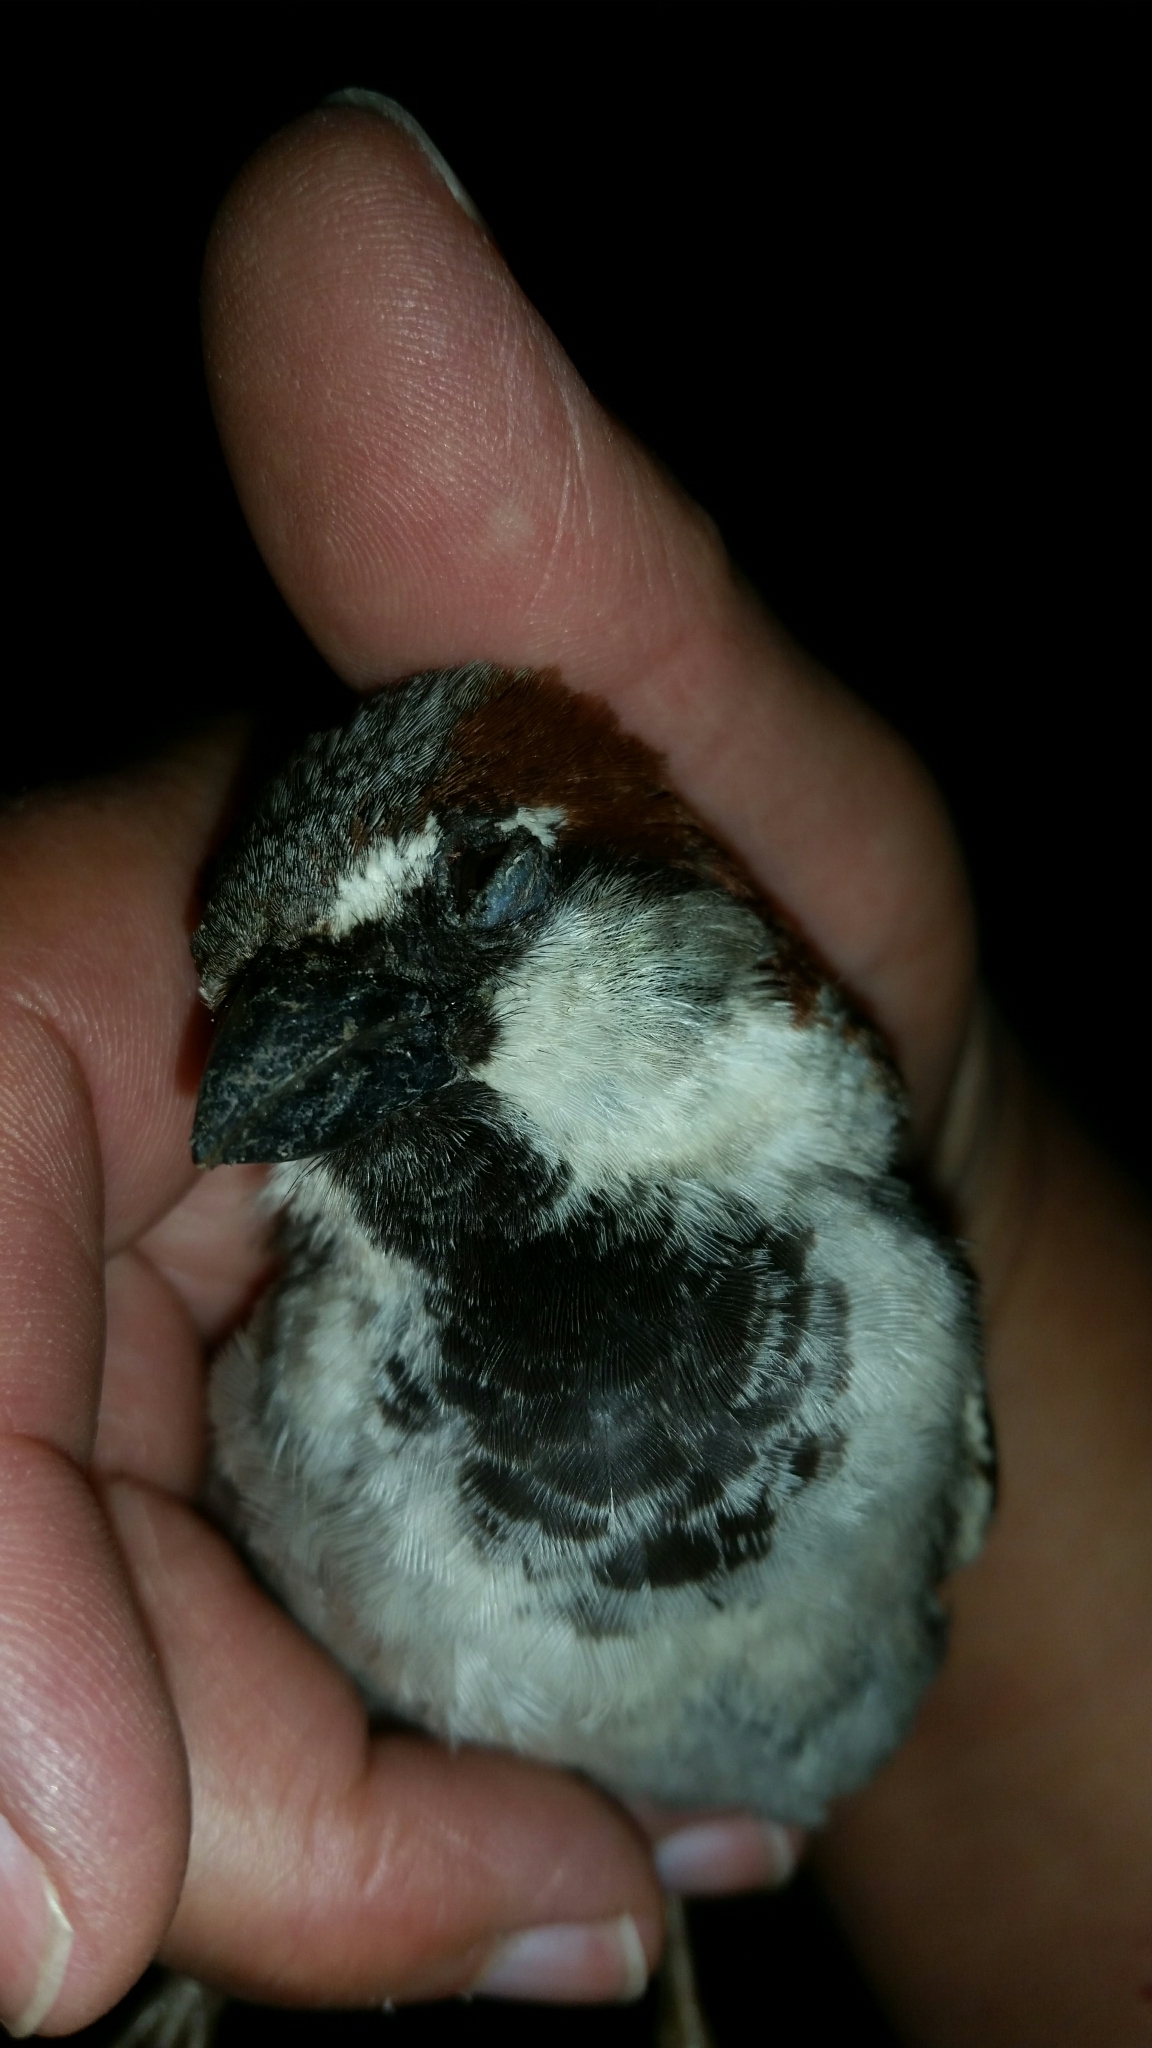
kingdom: Animalia
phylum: Chordata
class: Aves
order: Passeriformes
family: Passeridae
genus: Passer
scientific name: Passer domesticus
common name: House sparrow
